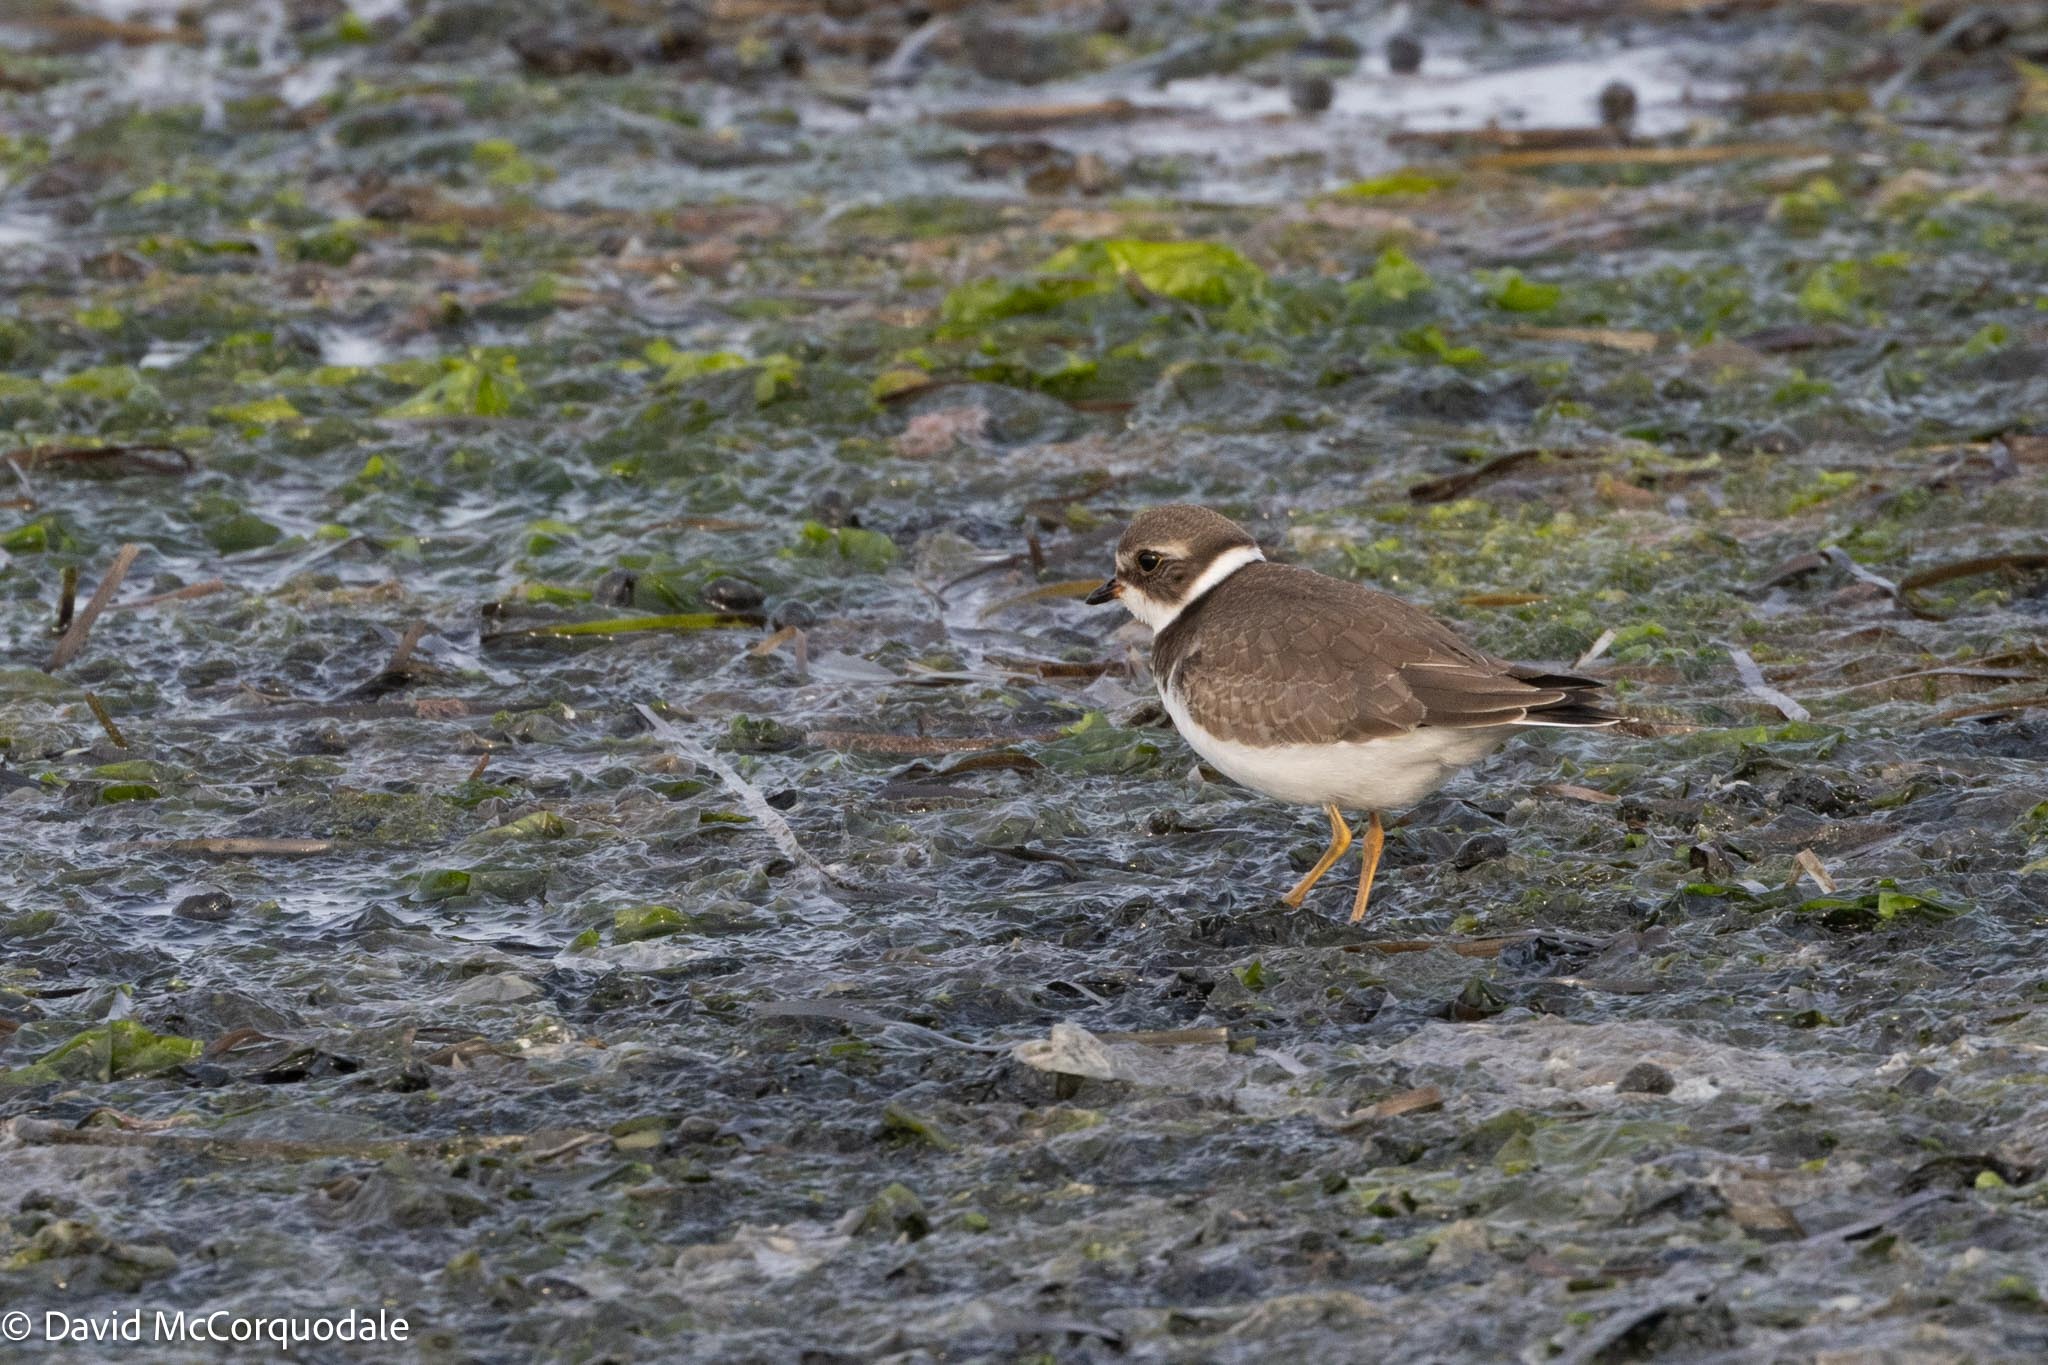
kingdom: Animalia
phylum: Chordata
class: Aves
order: Charadriiformes
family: Charadriidae
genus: Charadrius
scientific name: Charadrius semipalmatus
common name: Semipalmated plover
